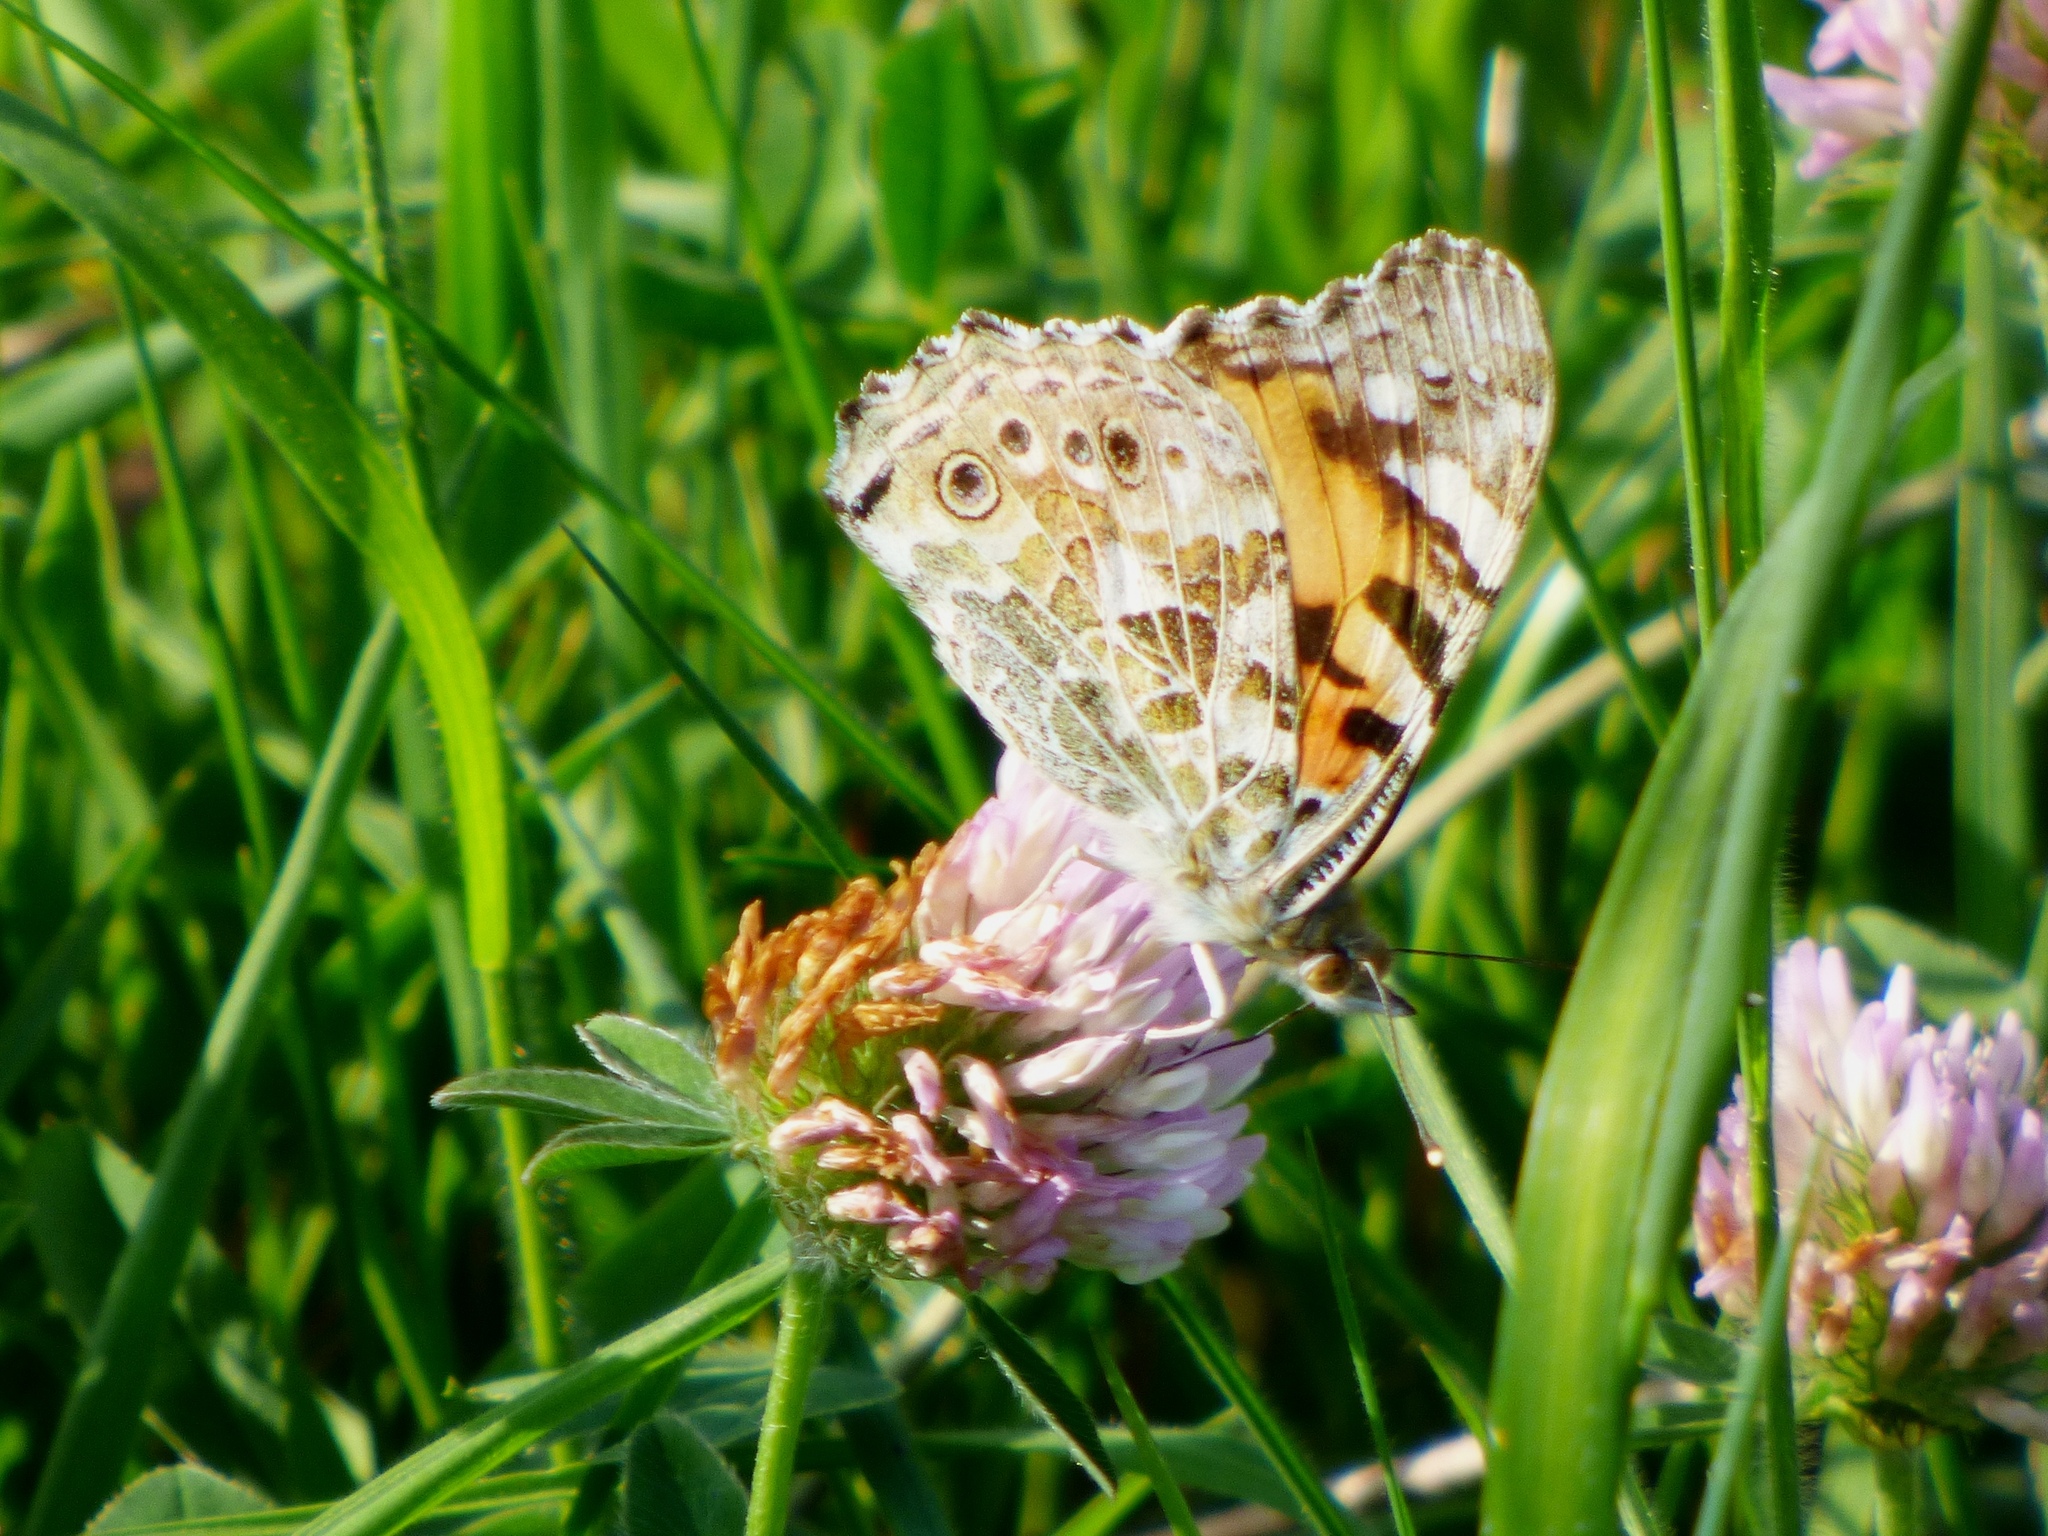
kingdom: Animalia
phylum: Arthropoda
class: Insecta
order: Lepidoptera
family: Nymphalidae
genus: Vanessa
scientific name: Vanessa cardui
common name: Painted lady
